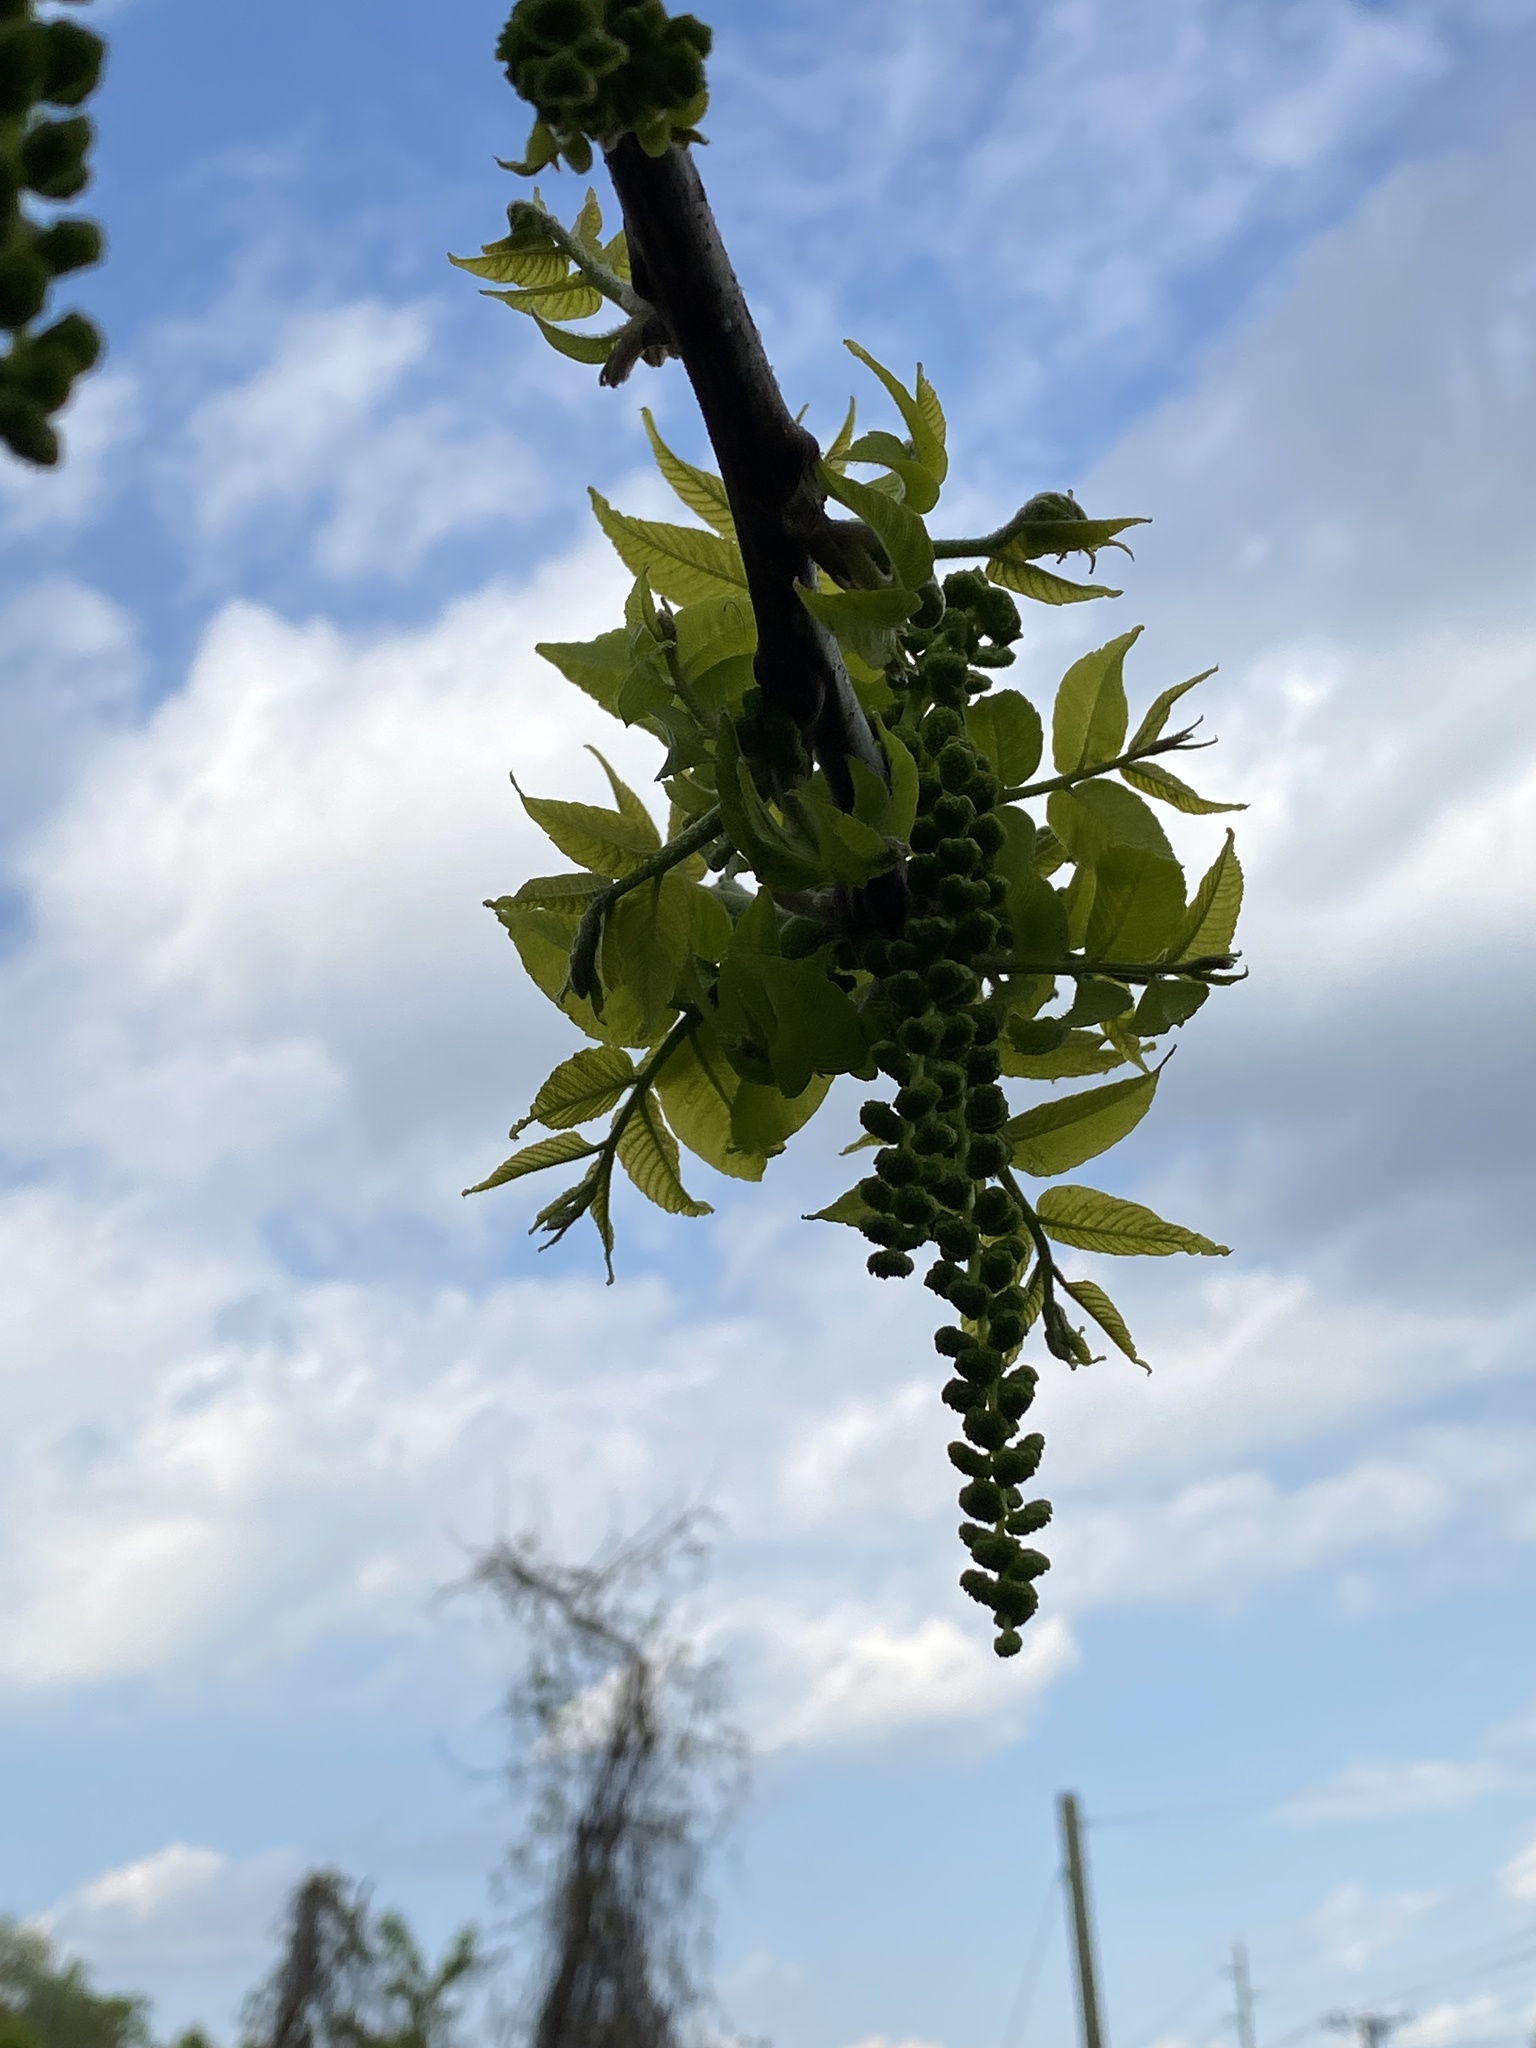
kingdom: Plantae
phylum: Tracheophyta
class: Magnoliopsida
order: Fagales
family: Juglandaceae
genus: Juglans
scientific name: Juglans nigra
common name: Black walnut
